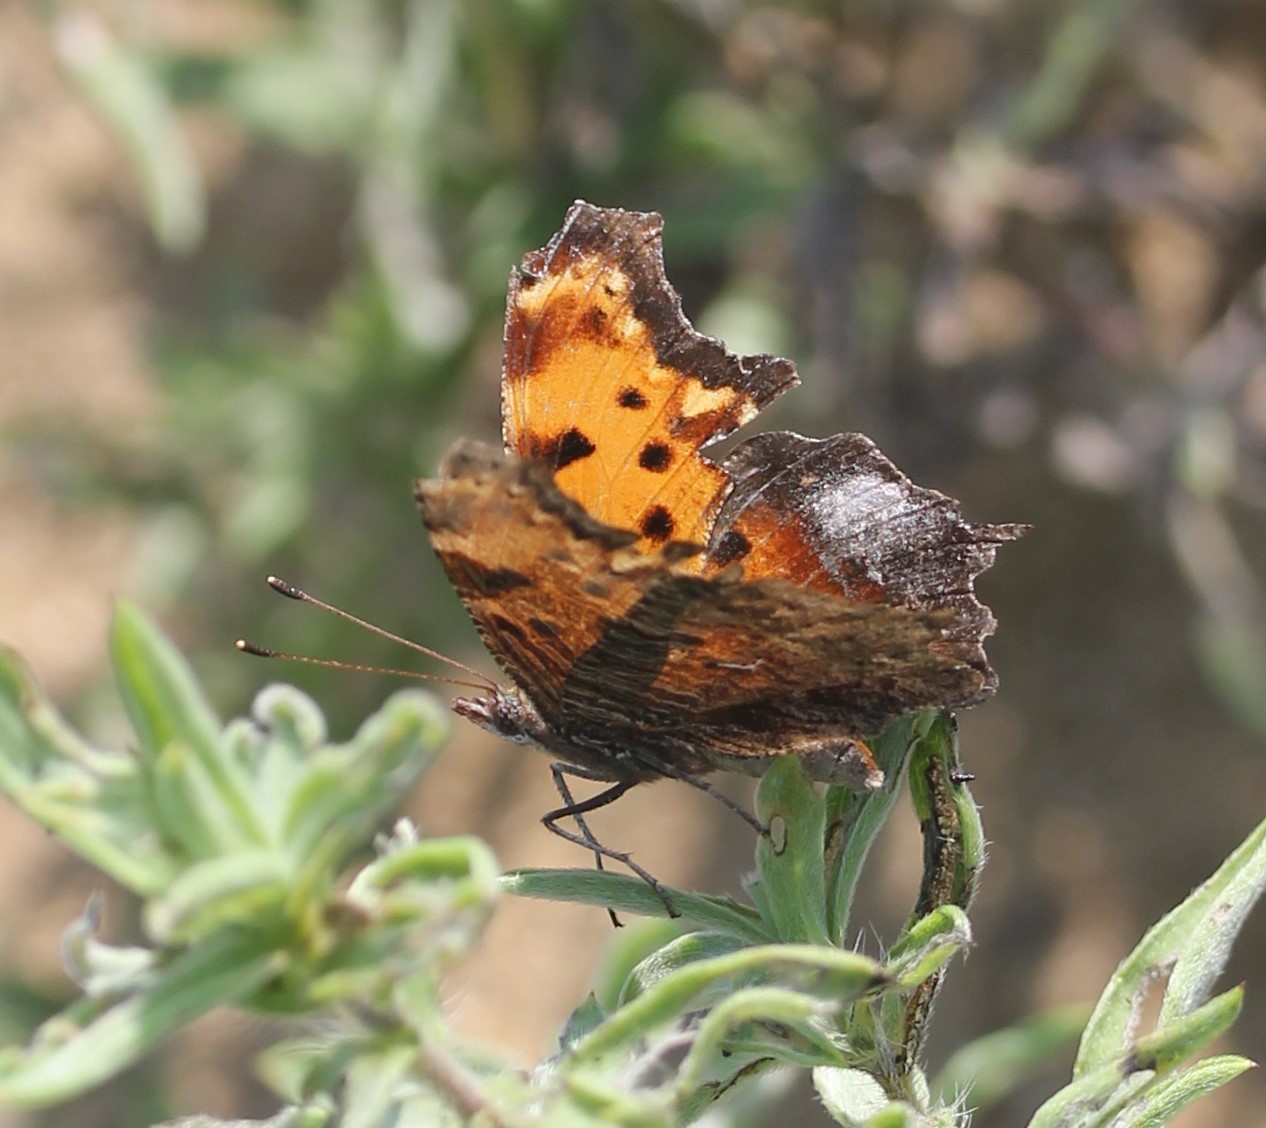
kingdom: Animalia
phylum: Arthropoda
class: Insecta
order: Lepidoptera
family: Nymphalidae
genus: Polygonia
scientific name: Polygonia progne
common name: Gray comma
